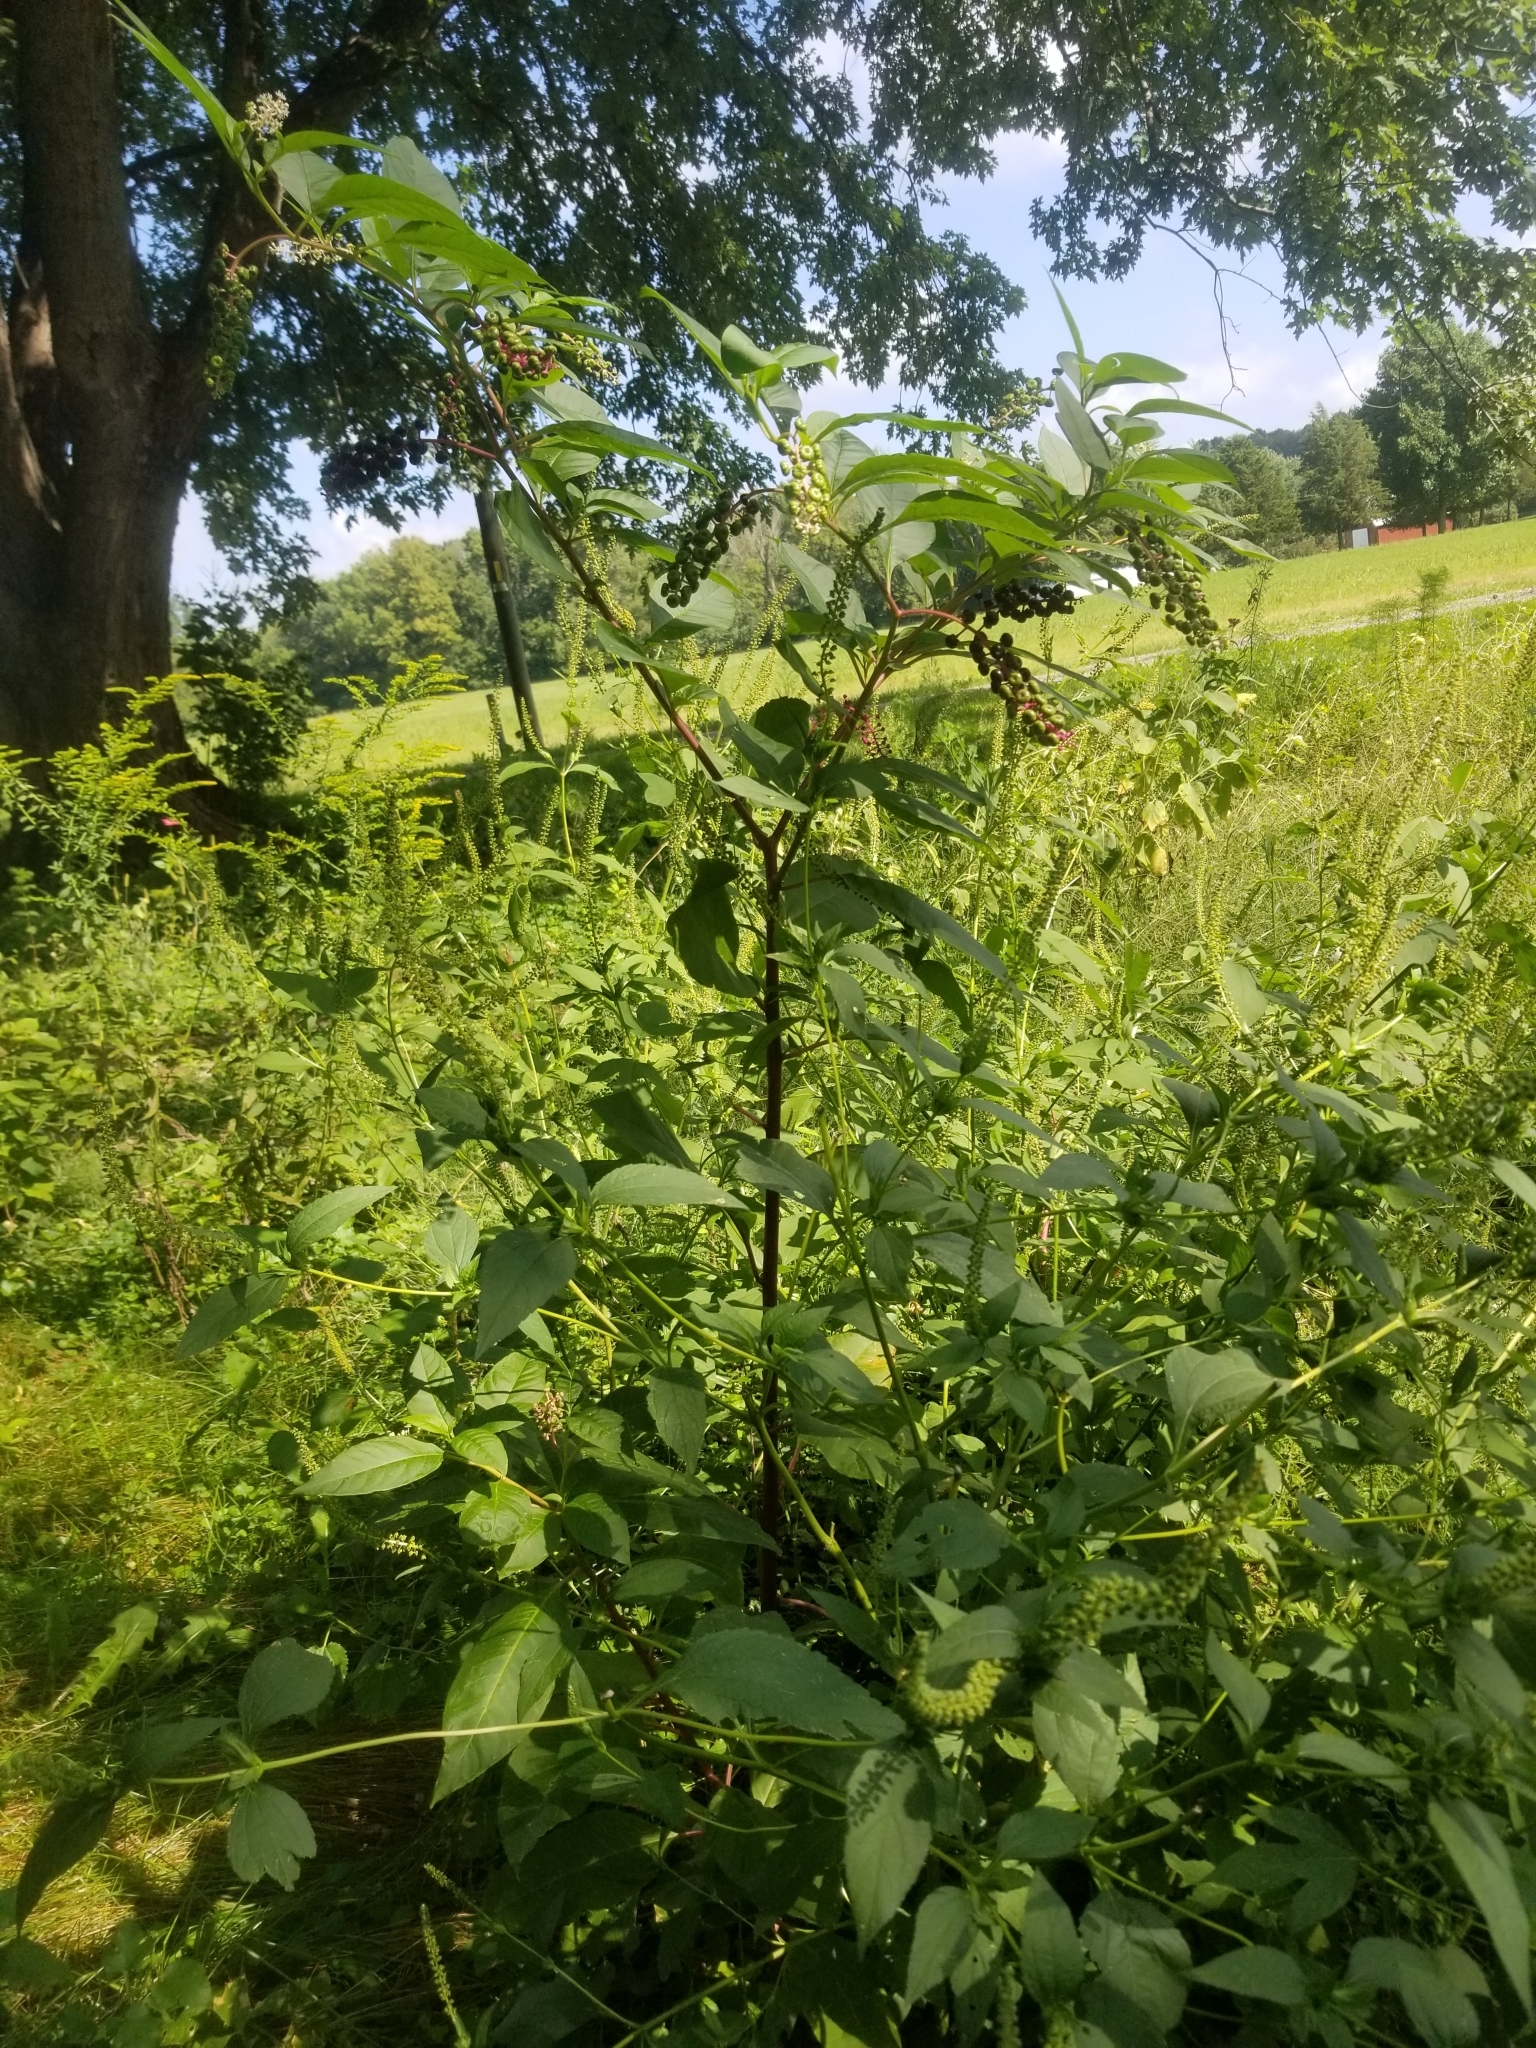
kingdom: Plantae
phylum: Tracheophyta
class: Magnoliopsida
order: Caryophyllales
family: Phytolaccaceae
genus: Phytolacca
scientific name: Phytolacca americana
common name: American pokeweed
